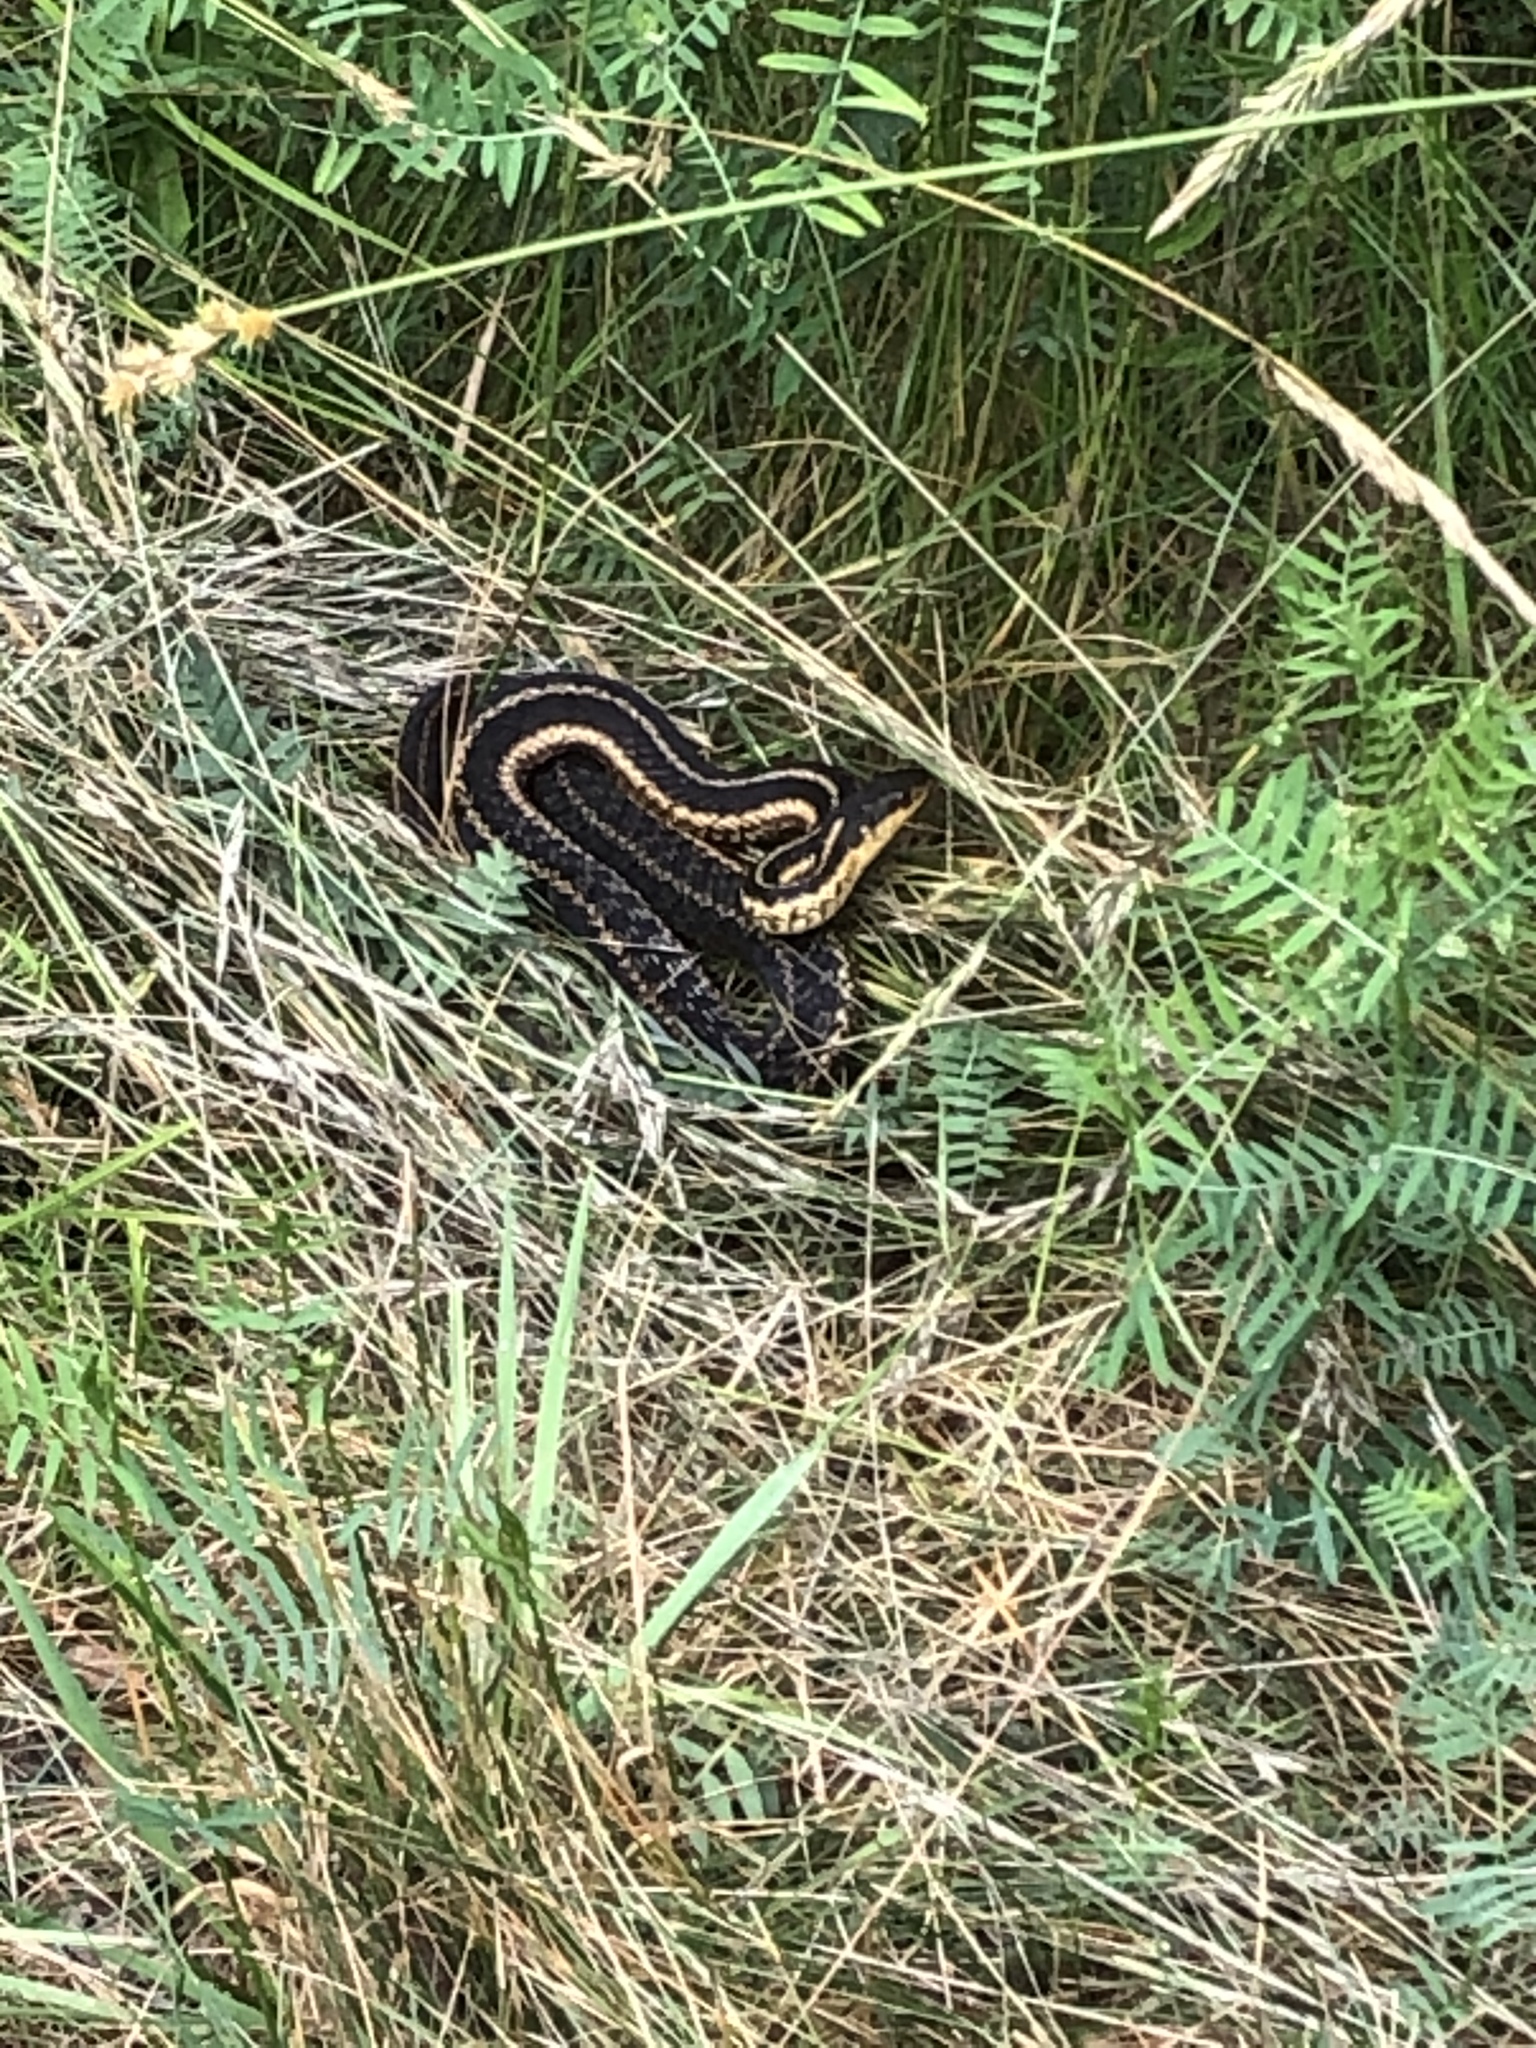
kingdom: Animalia
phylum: Chordata
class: Squamata
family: Colubridae
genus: Thamnophis
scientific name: Thamnophis sirtalis
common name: Common garter snake
